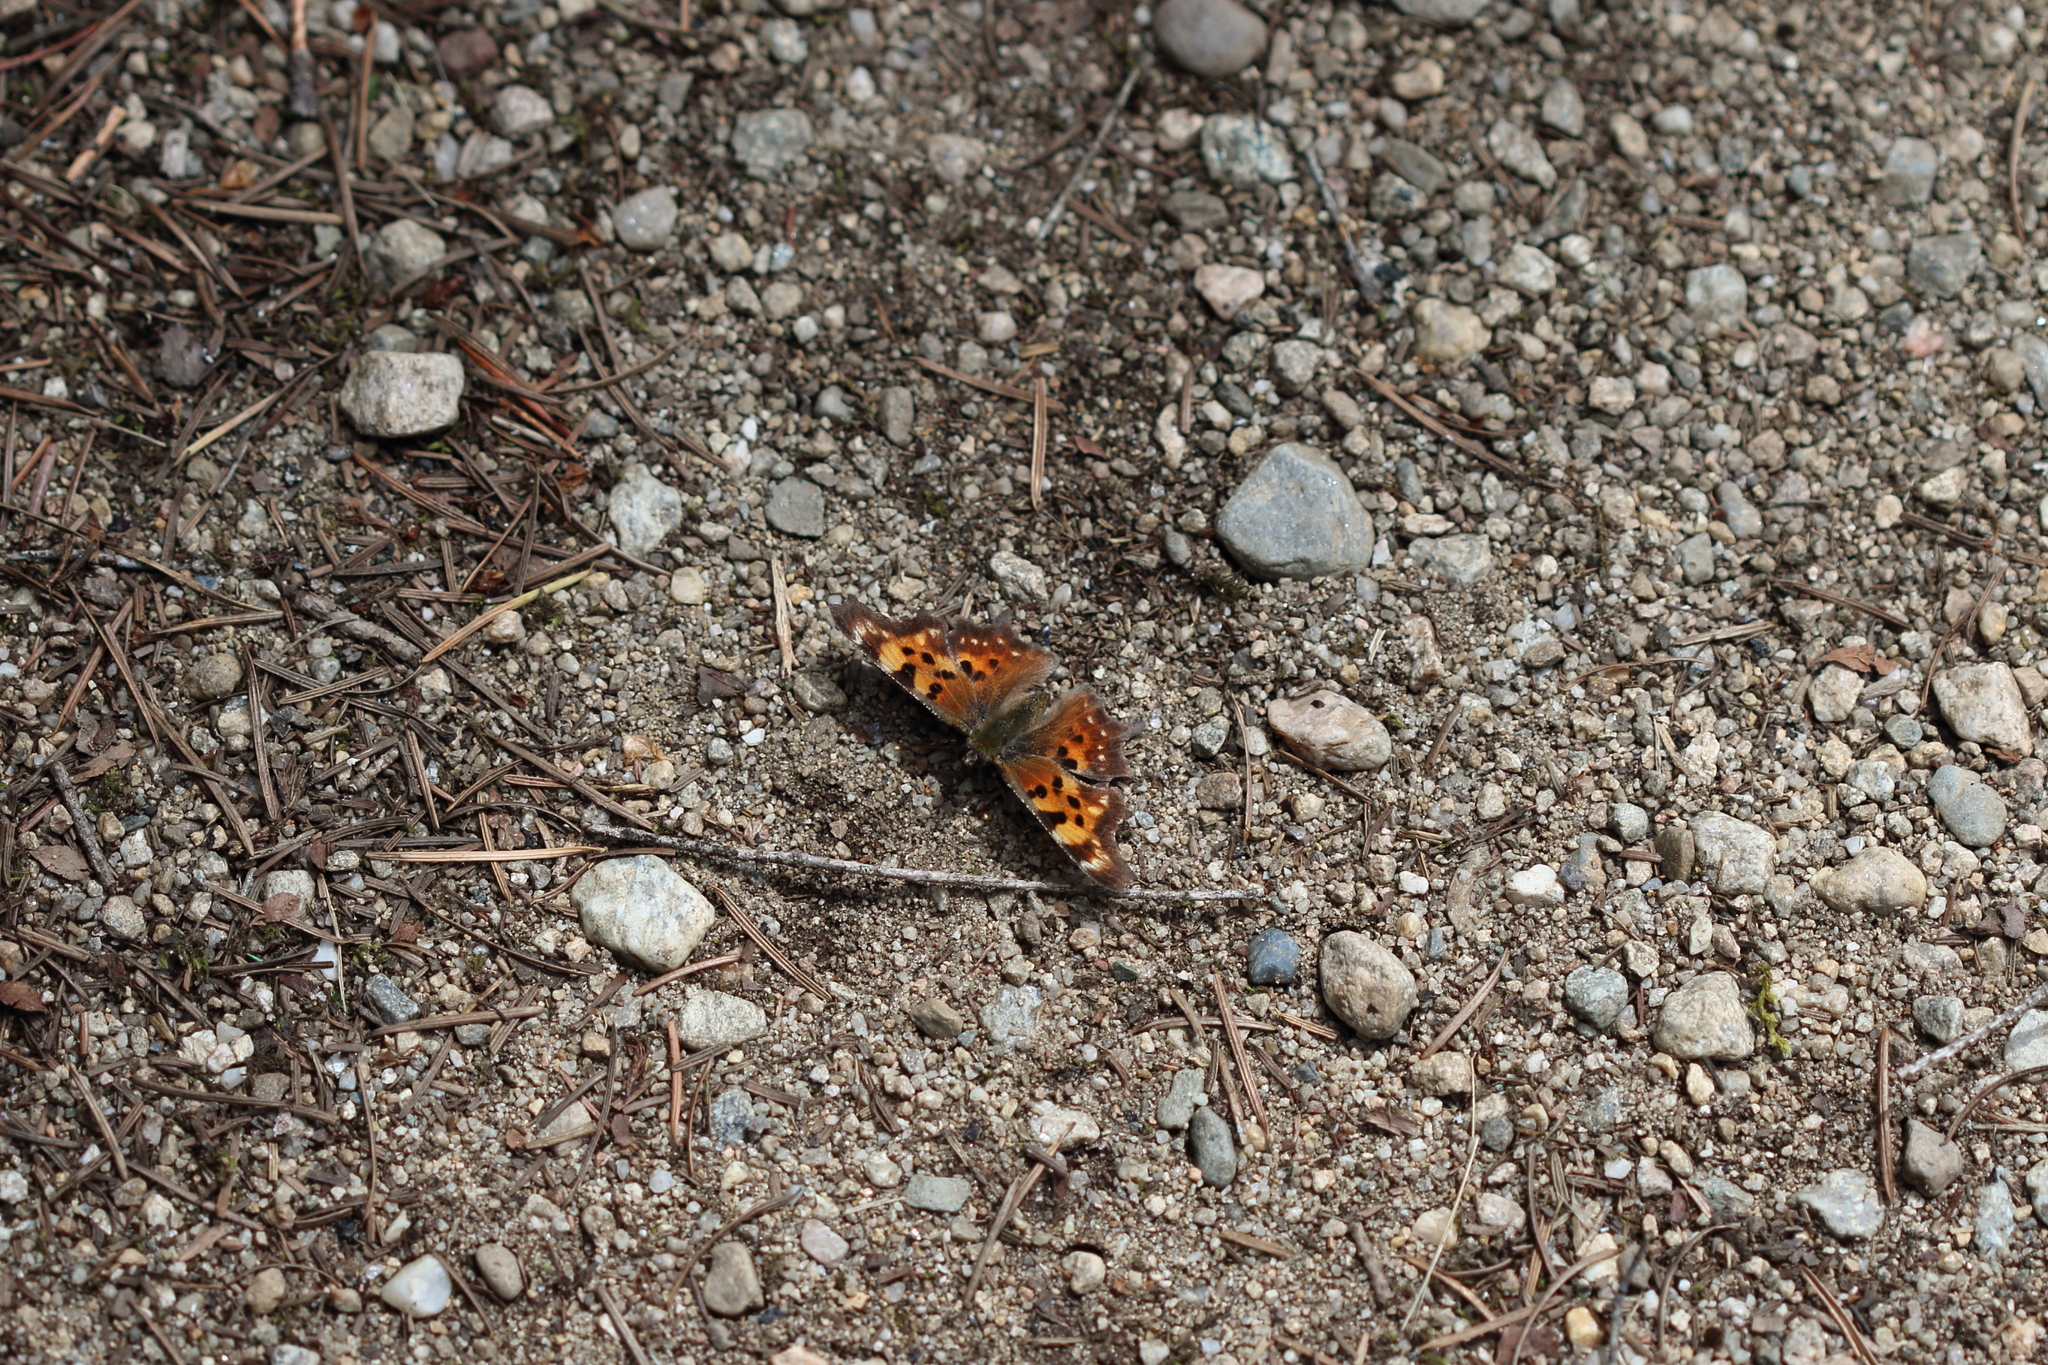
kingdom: Animalia
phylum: Arthropoda
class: Insecta
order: Lepidoptera
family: Nymphalidae
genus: Polygonia
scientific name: Polygonia faunus
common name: Green comma
